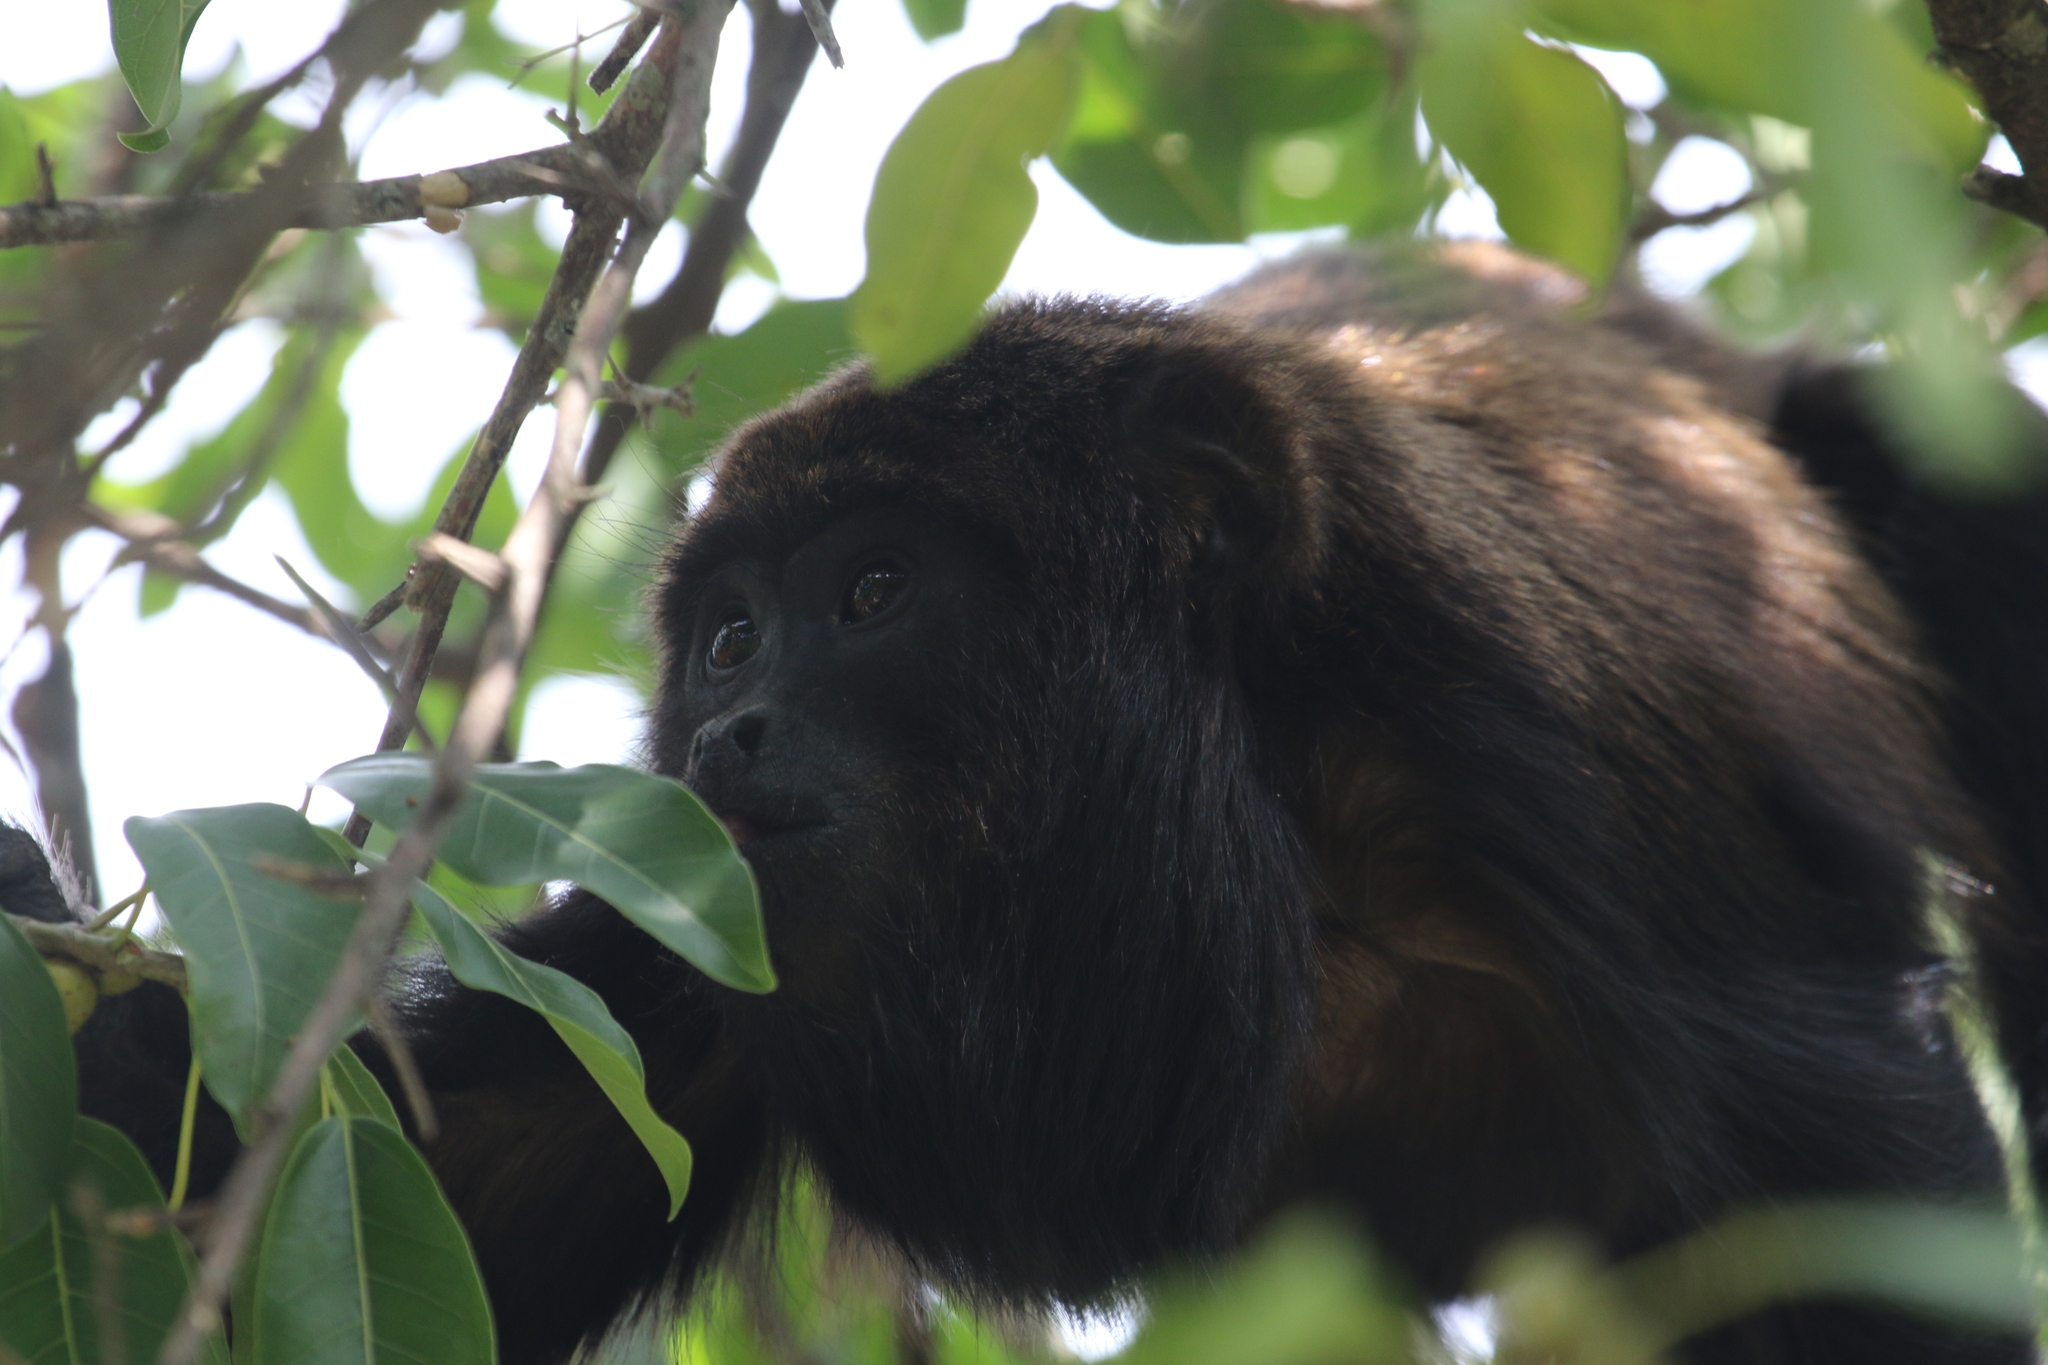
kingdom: Animalia
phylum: Chordata
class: Mammalia
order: Primates
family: Atelidae
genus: Alouatta
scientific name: Alouatta guariba
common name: Brown howler monkey
